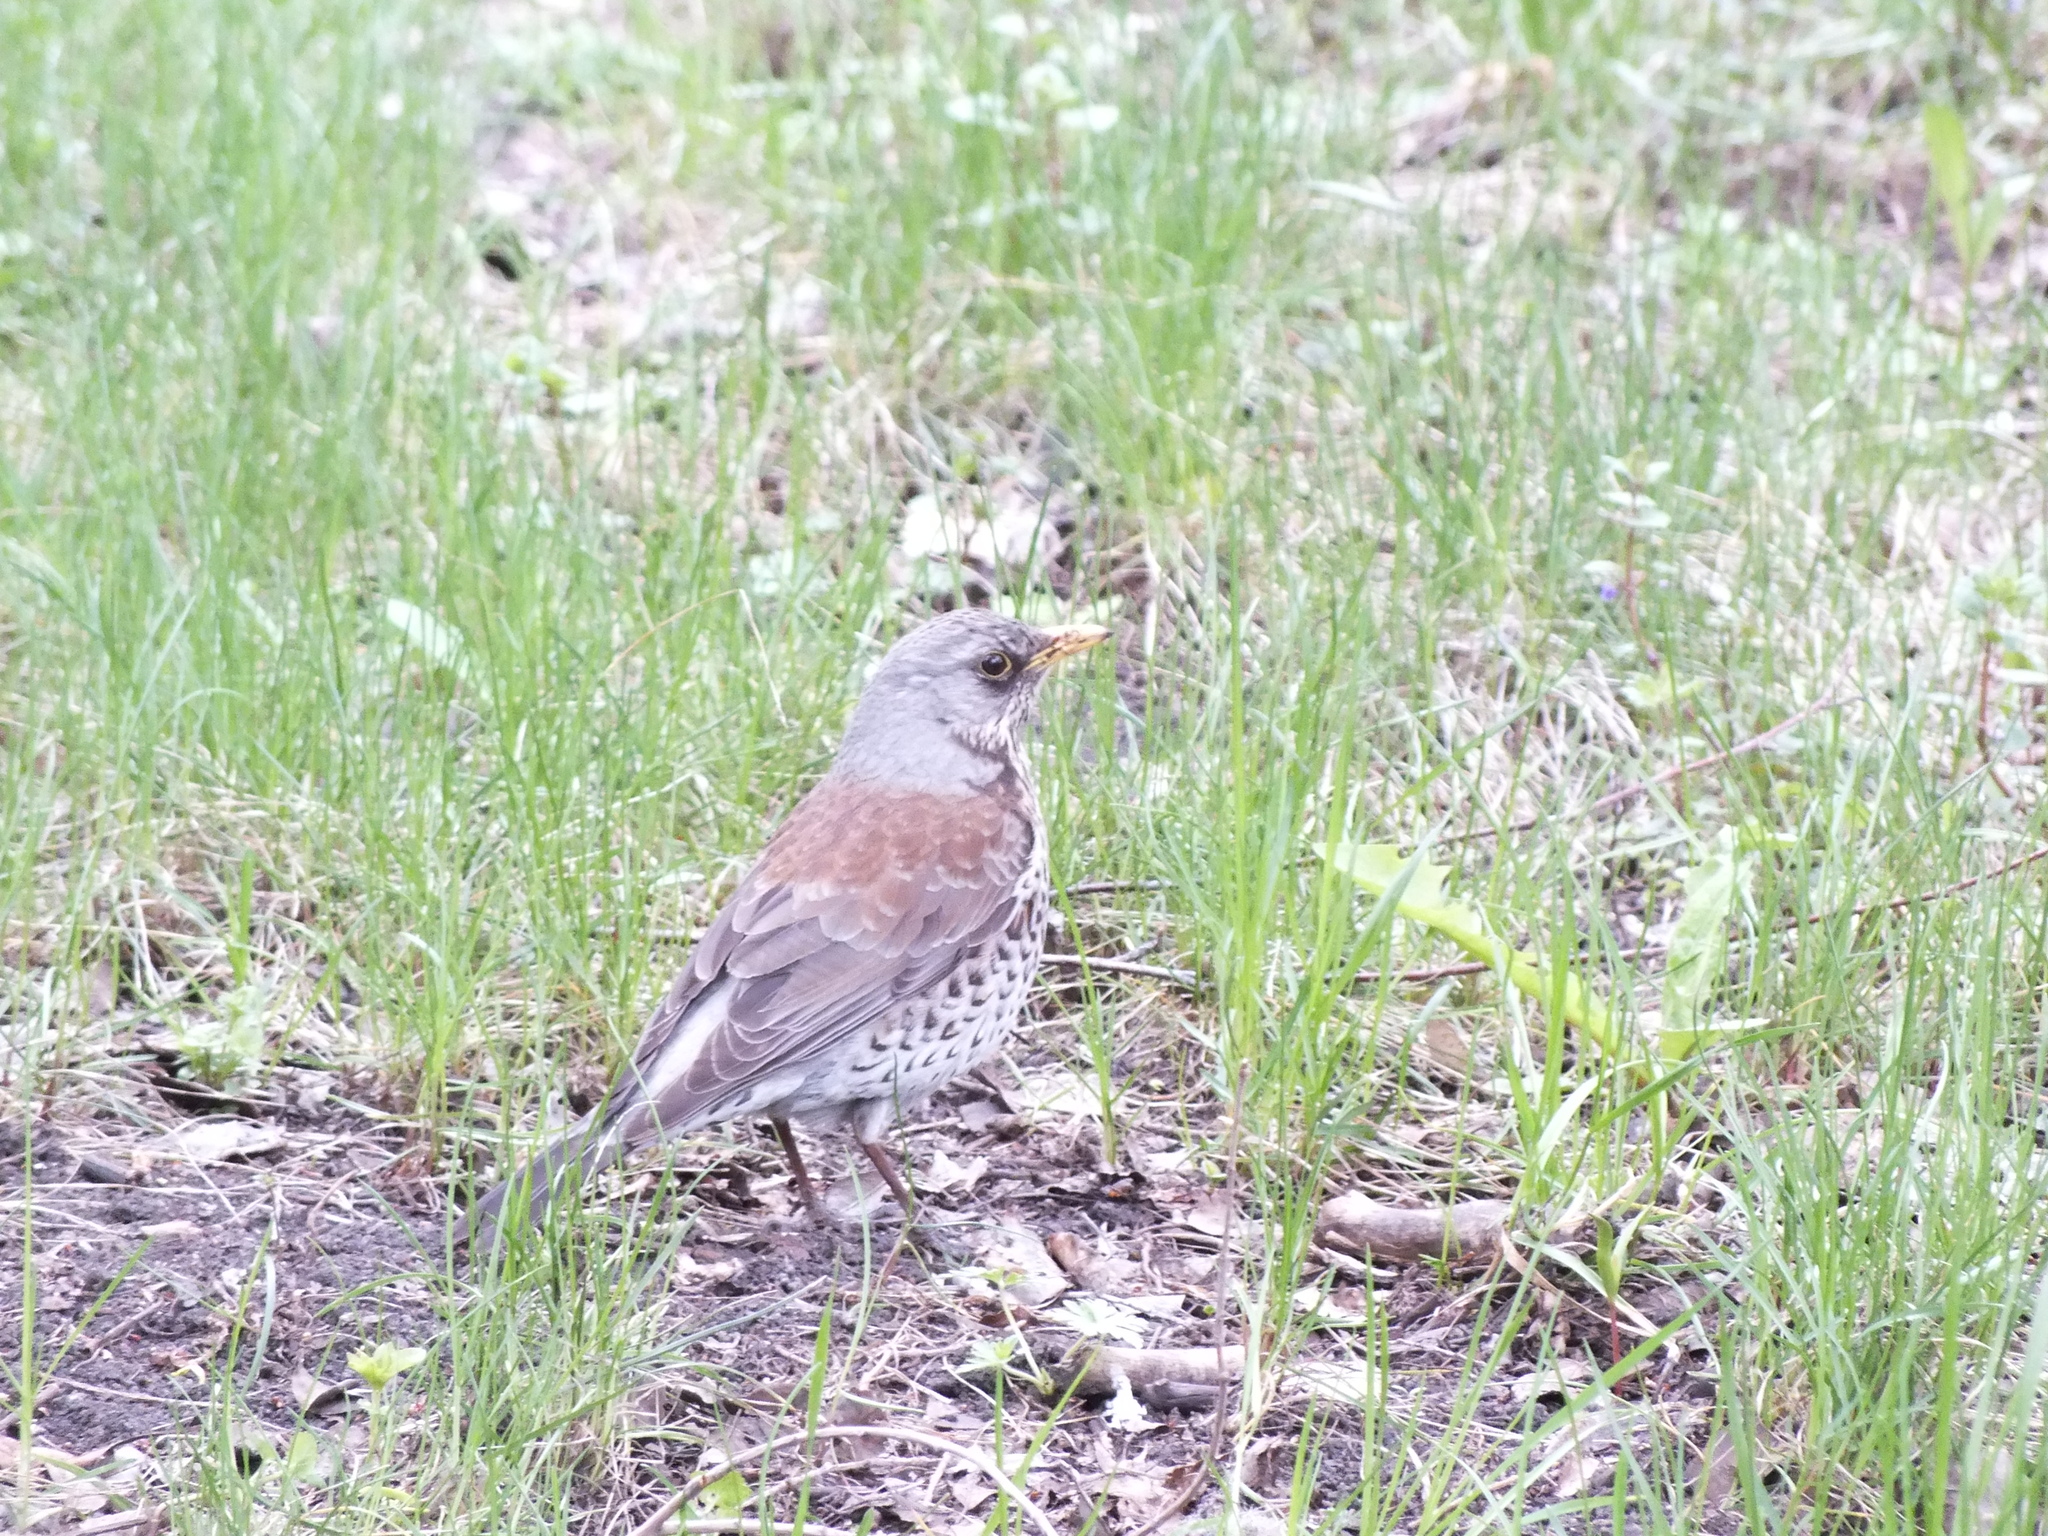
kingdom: Animalia
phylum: Chordata
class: Aves
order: Passeriformes
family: Turdidae
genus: Turdus
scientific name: Turdus pilaris
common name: Fieldfare
